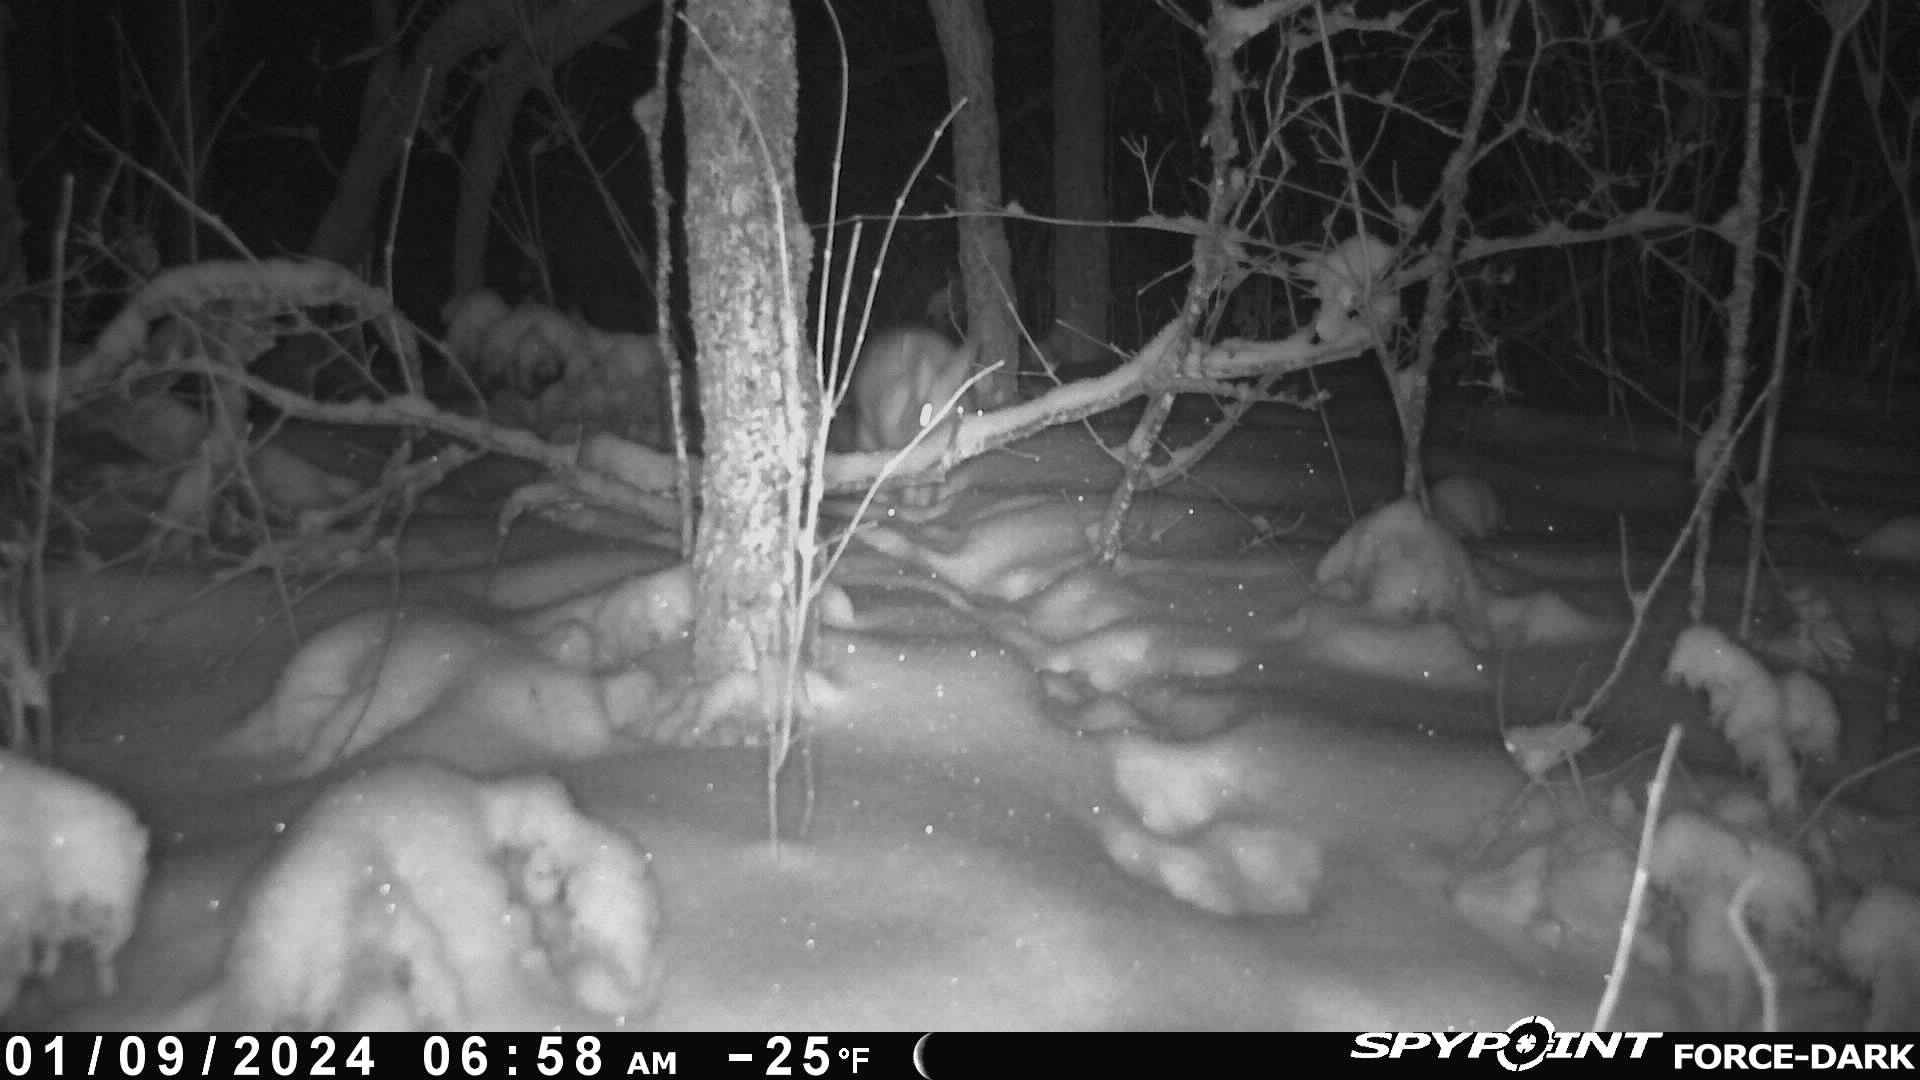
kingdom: Animalia
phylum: Chordata
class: Mammalia
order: Lagomorpha
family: Leporidae
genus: Lepus
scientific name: Lepus americanus
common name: Snowshoe hare
